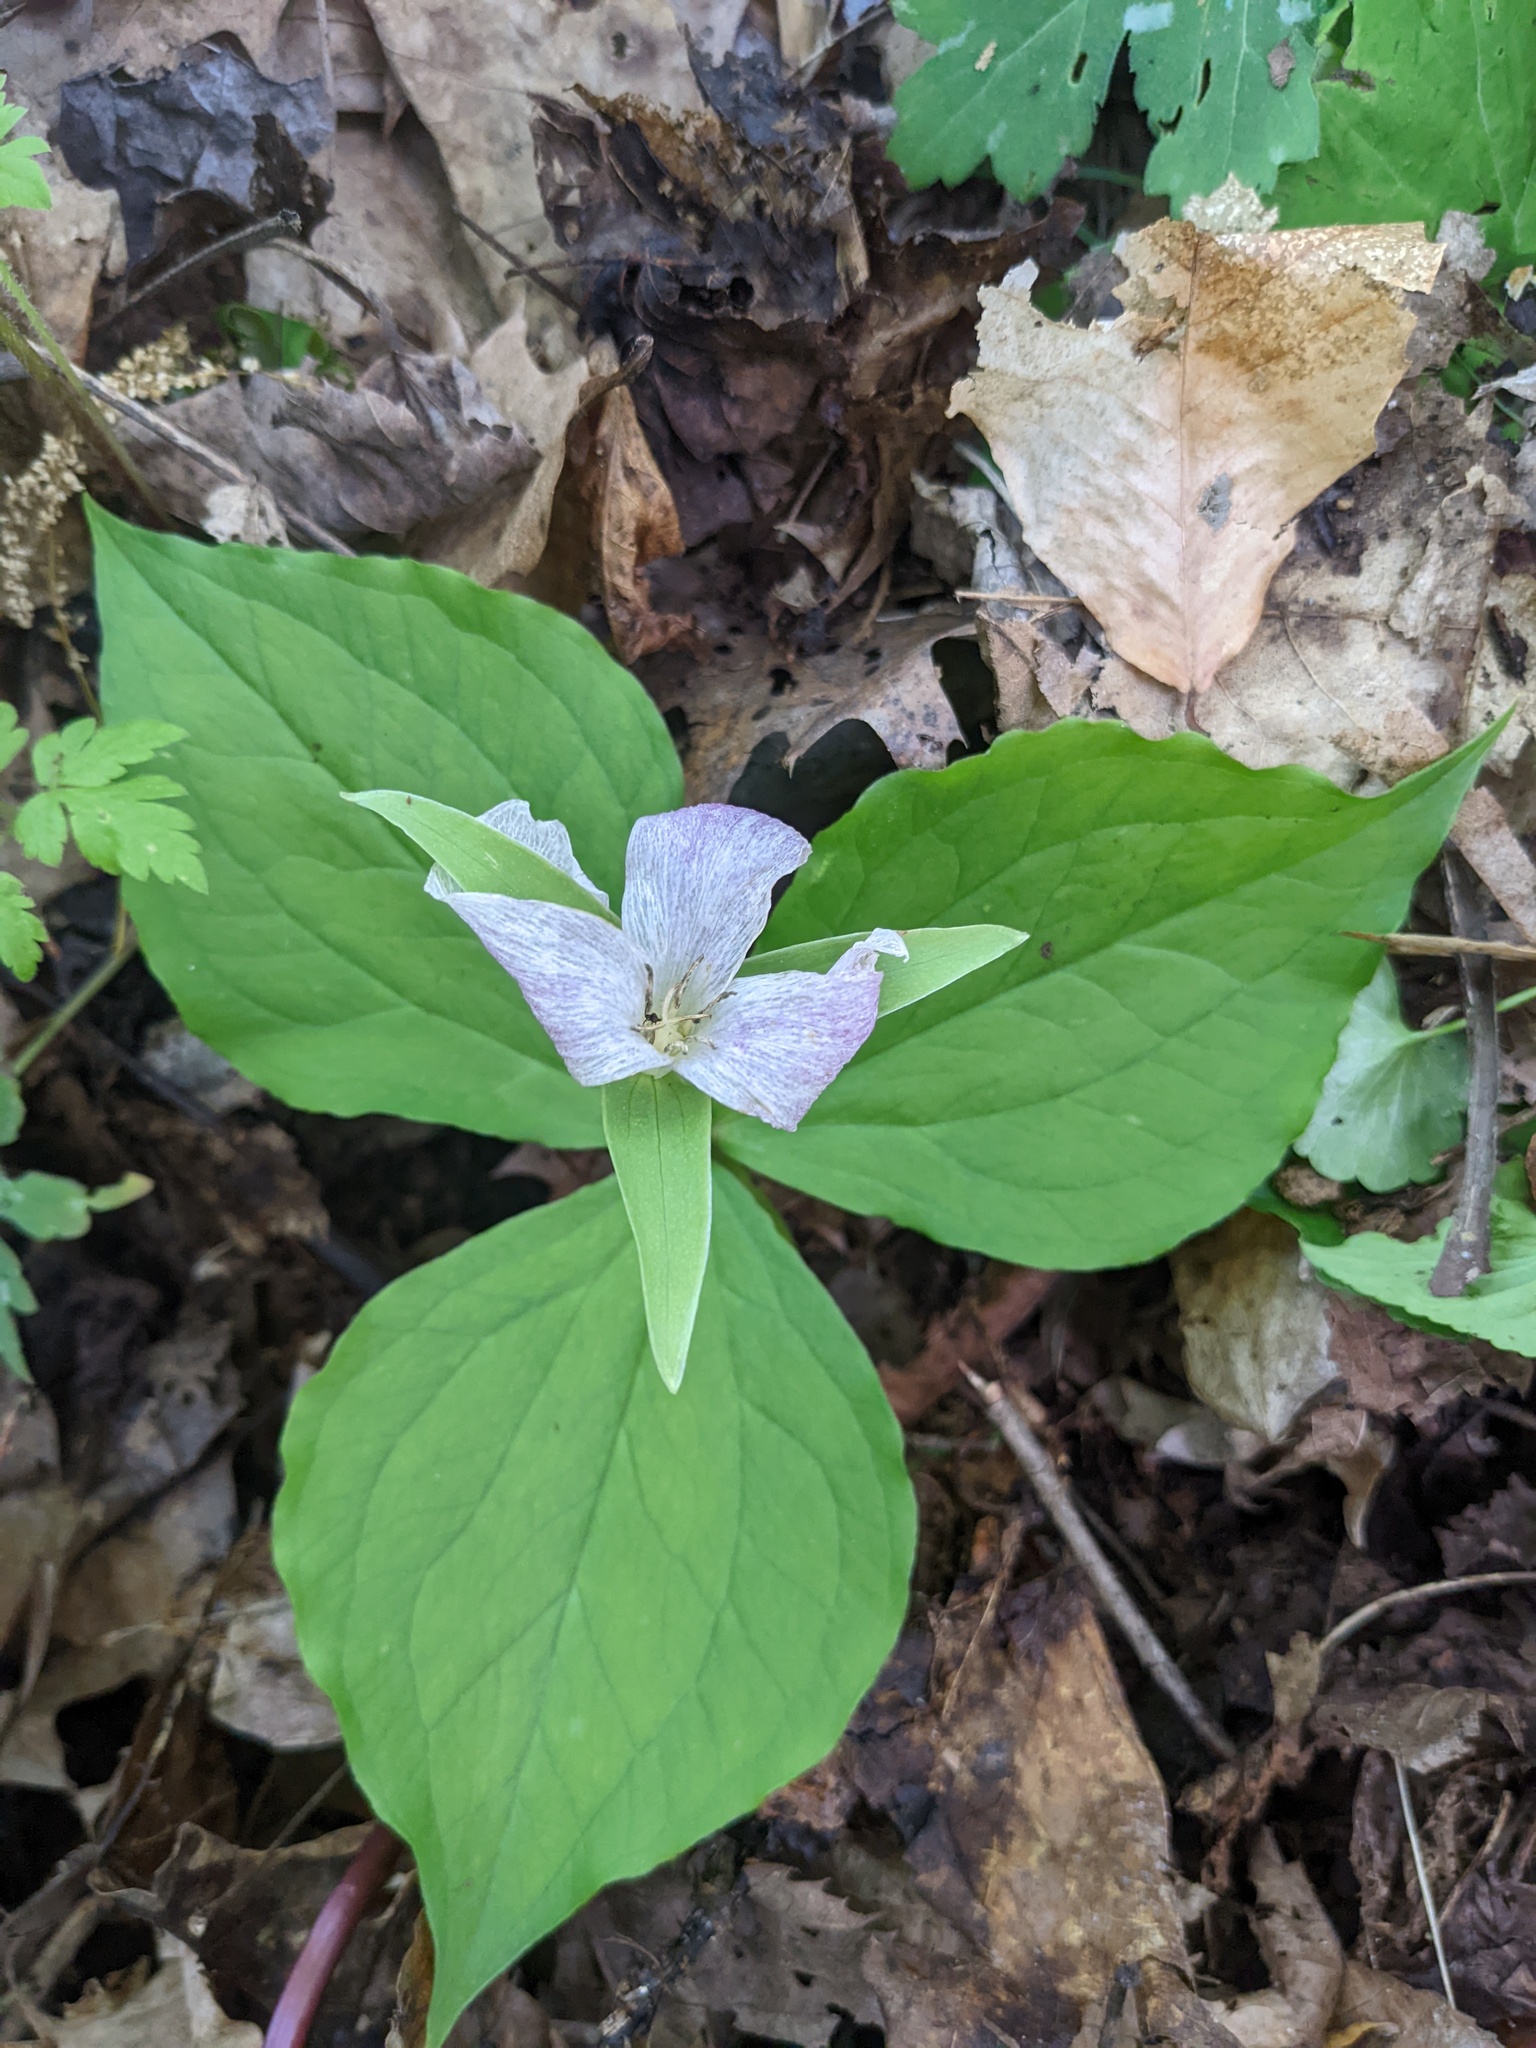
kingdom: Plantae
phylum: Tracheophyta
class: Liliopsida
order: Liliales
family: Melanthiaceae
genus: Trillium
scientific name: Trillium grandiflorum
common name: Great white trillium
